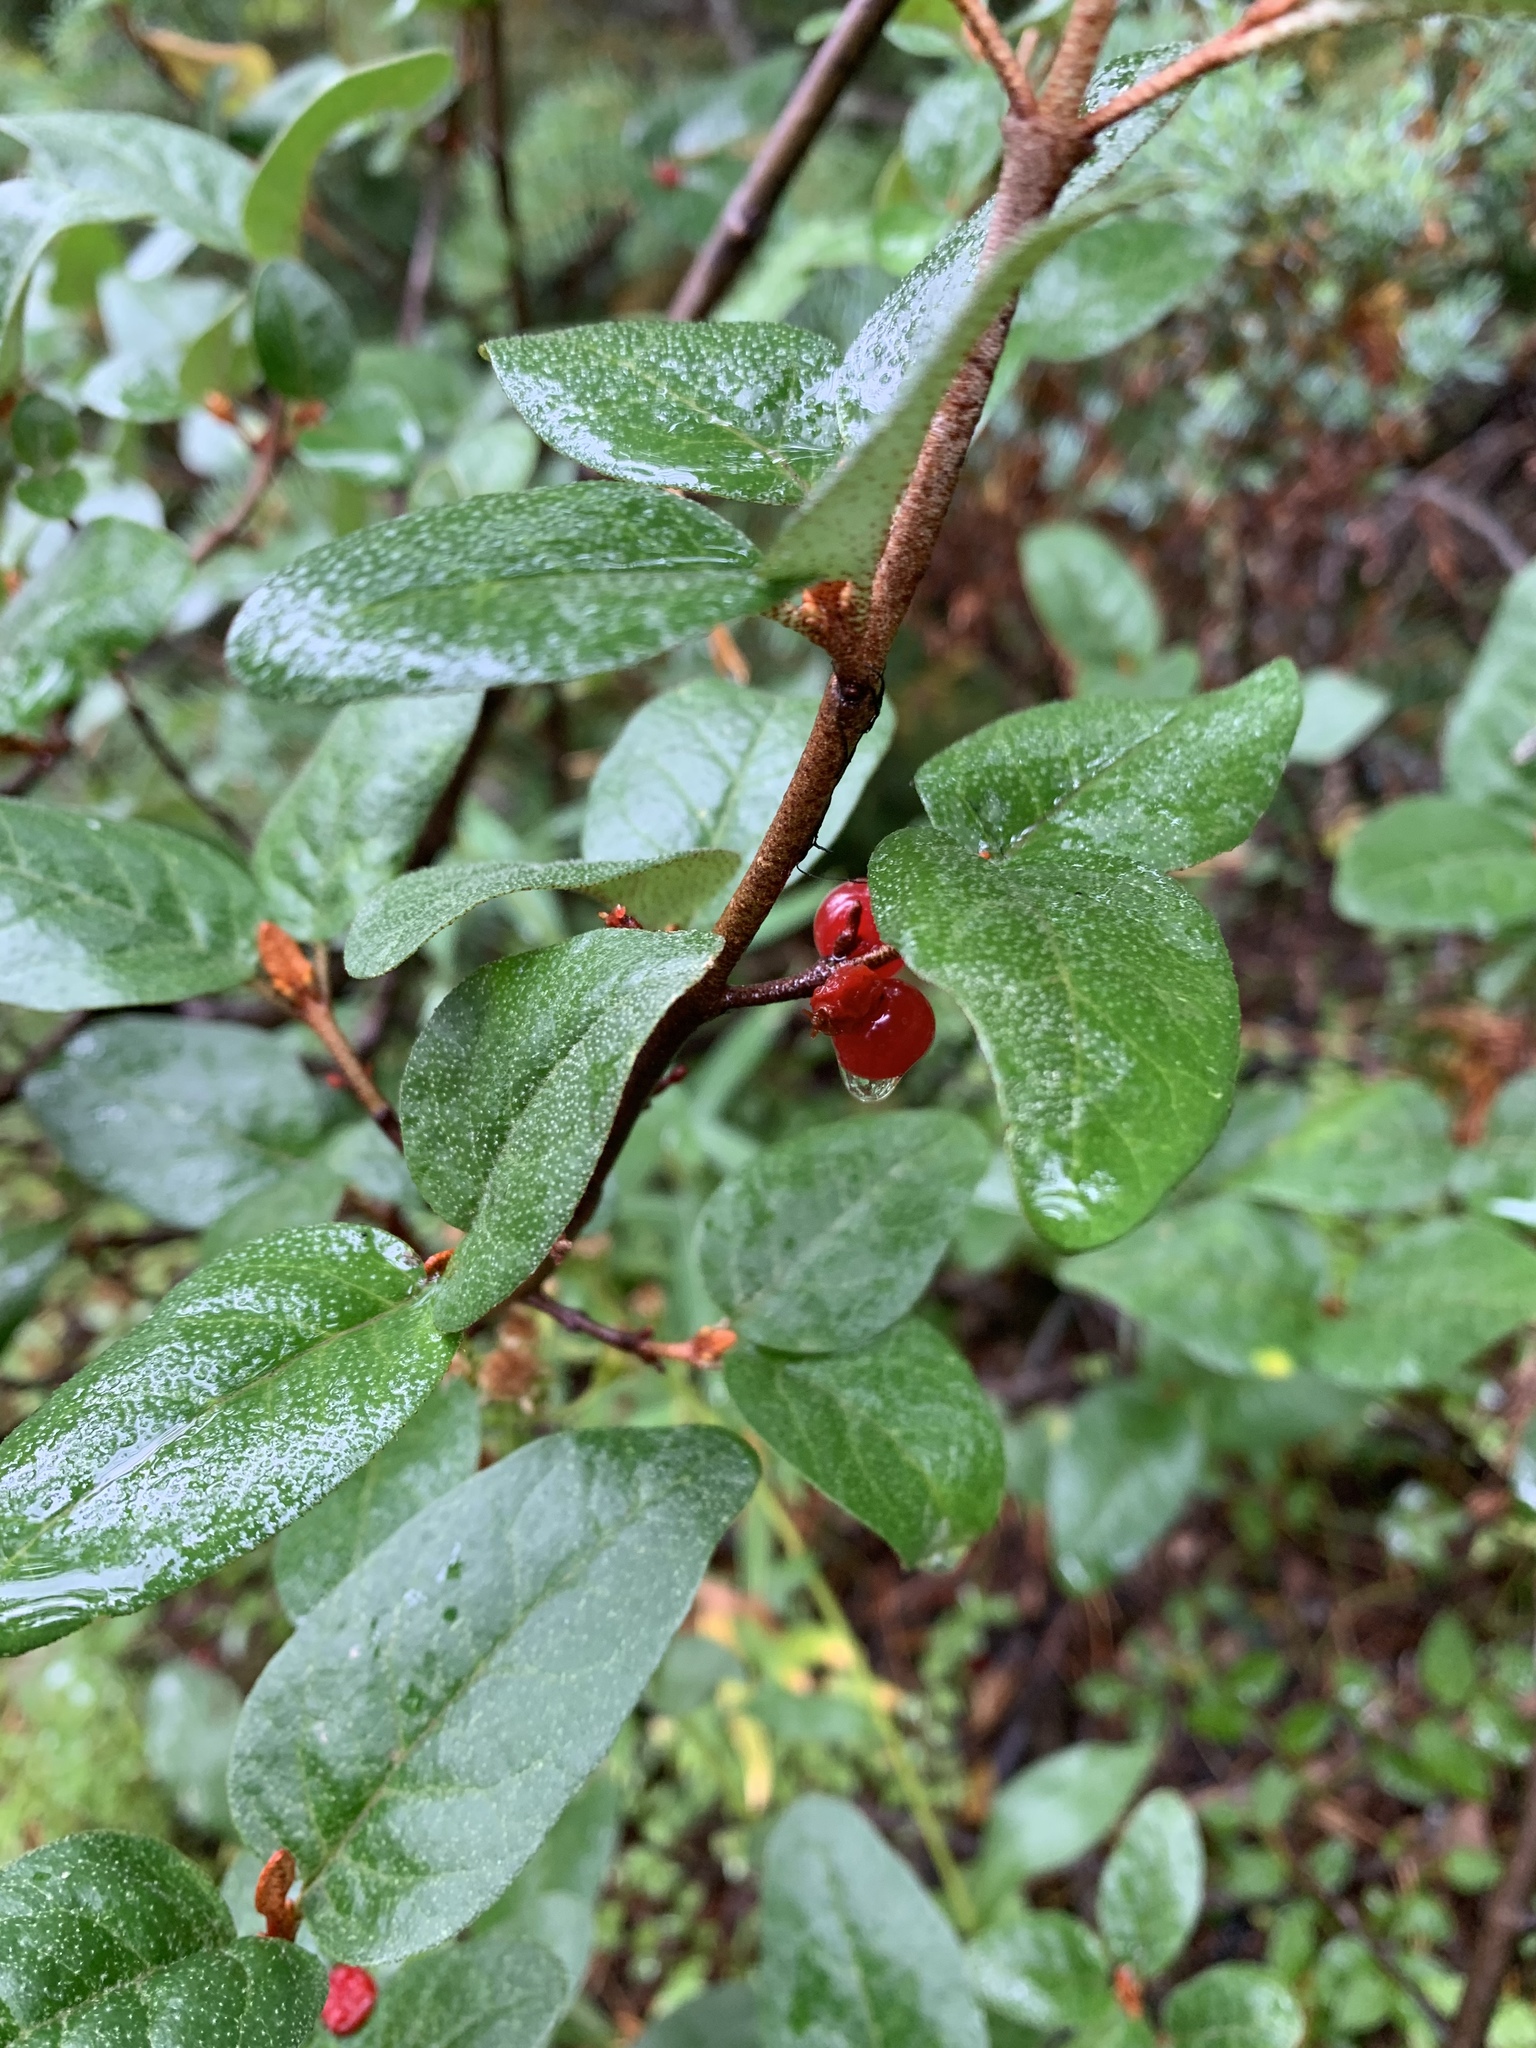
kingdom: Plantae
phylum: Tracheophyta
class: Magnoliopsida
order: Rosales
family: Elaeagnaceae
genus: Shepherdia
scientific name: Shepherdia canadensis
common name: Soapberry
